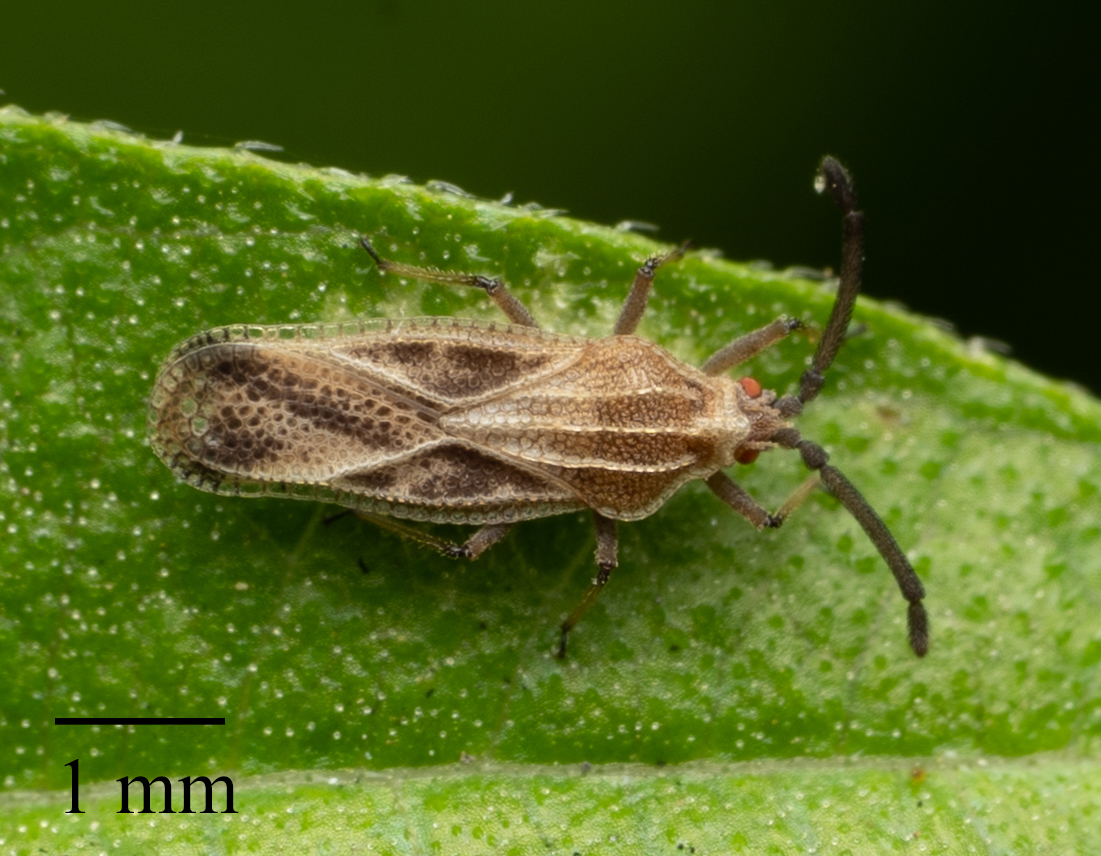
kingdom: Animalia
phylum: Arthropoda
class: Insecta
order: Hemiptera
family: Tingidae
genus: Teleonemia
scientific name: Teleonemia scrupulosa
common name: Lantana lace bug
